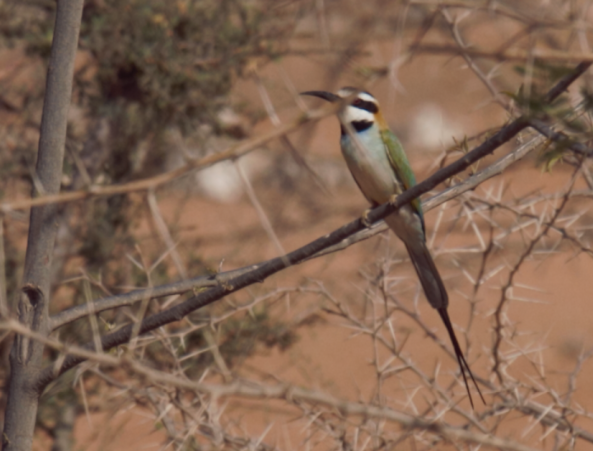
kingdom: Animalia
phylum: Chordata
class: Aves
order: Coraciiformes
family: Meropidae
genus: Merops
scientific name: Merops albicollis
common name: White-throated bee-eater
